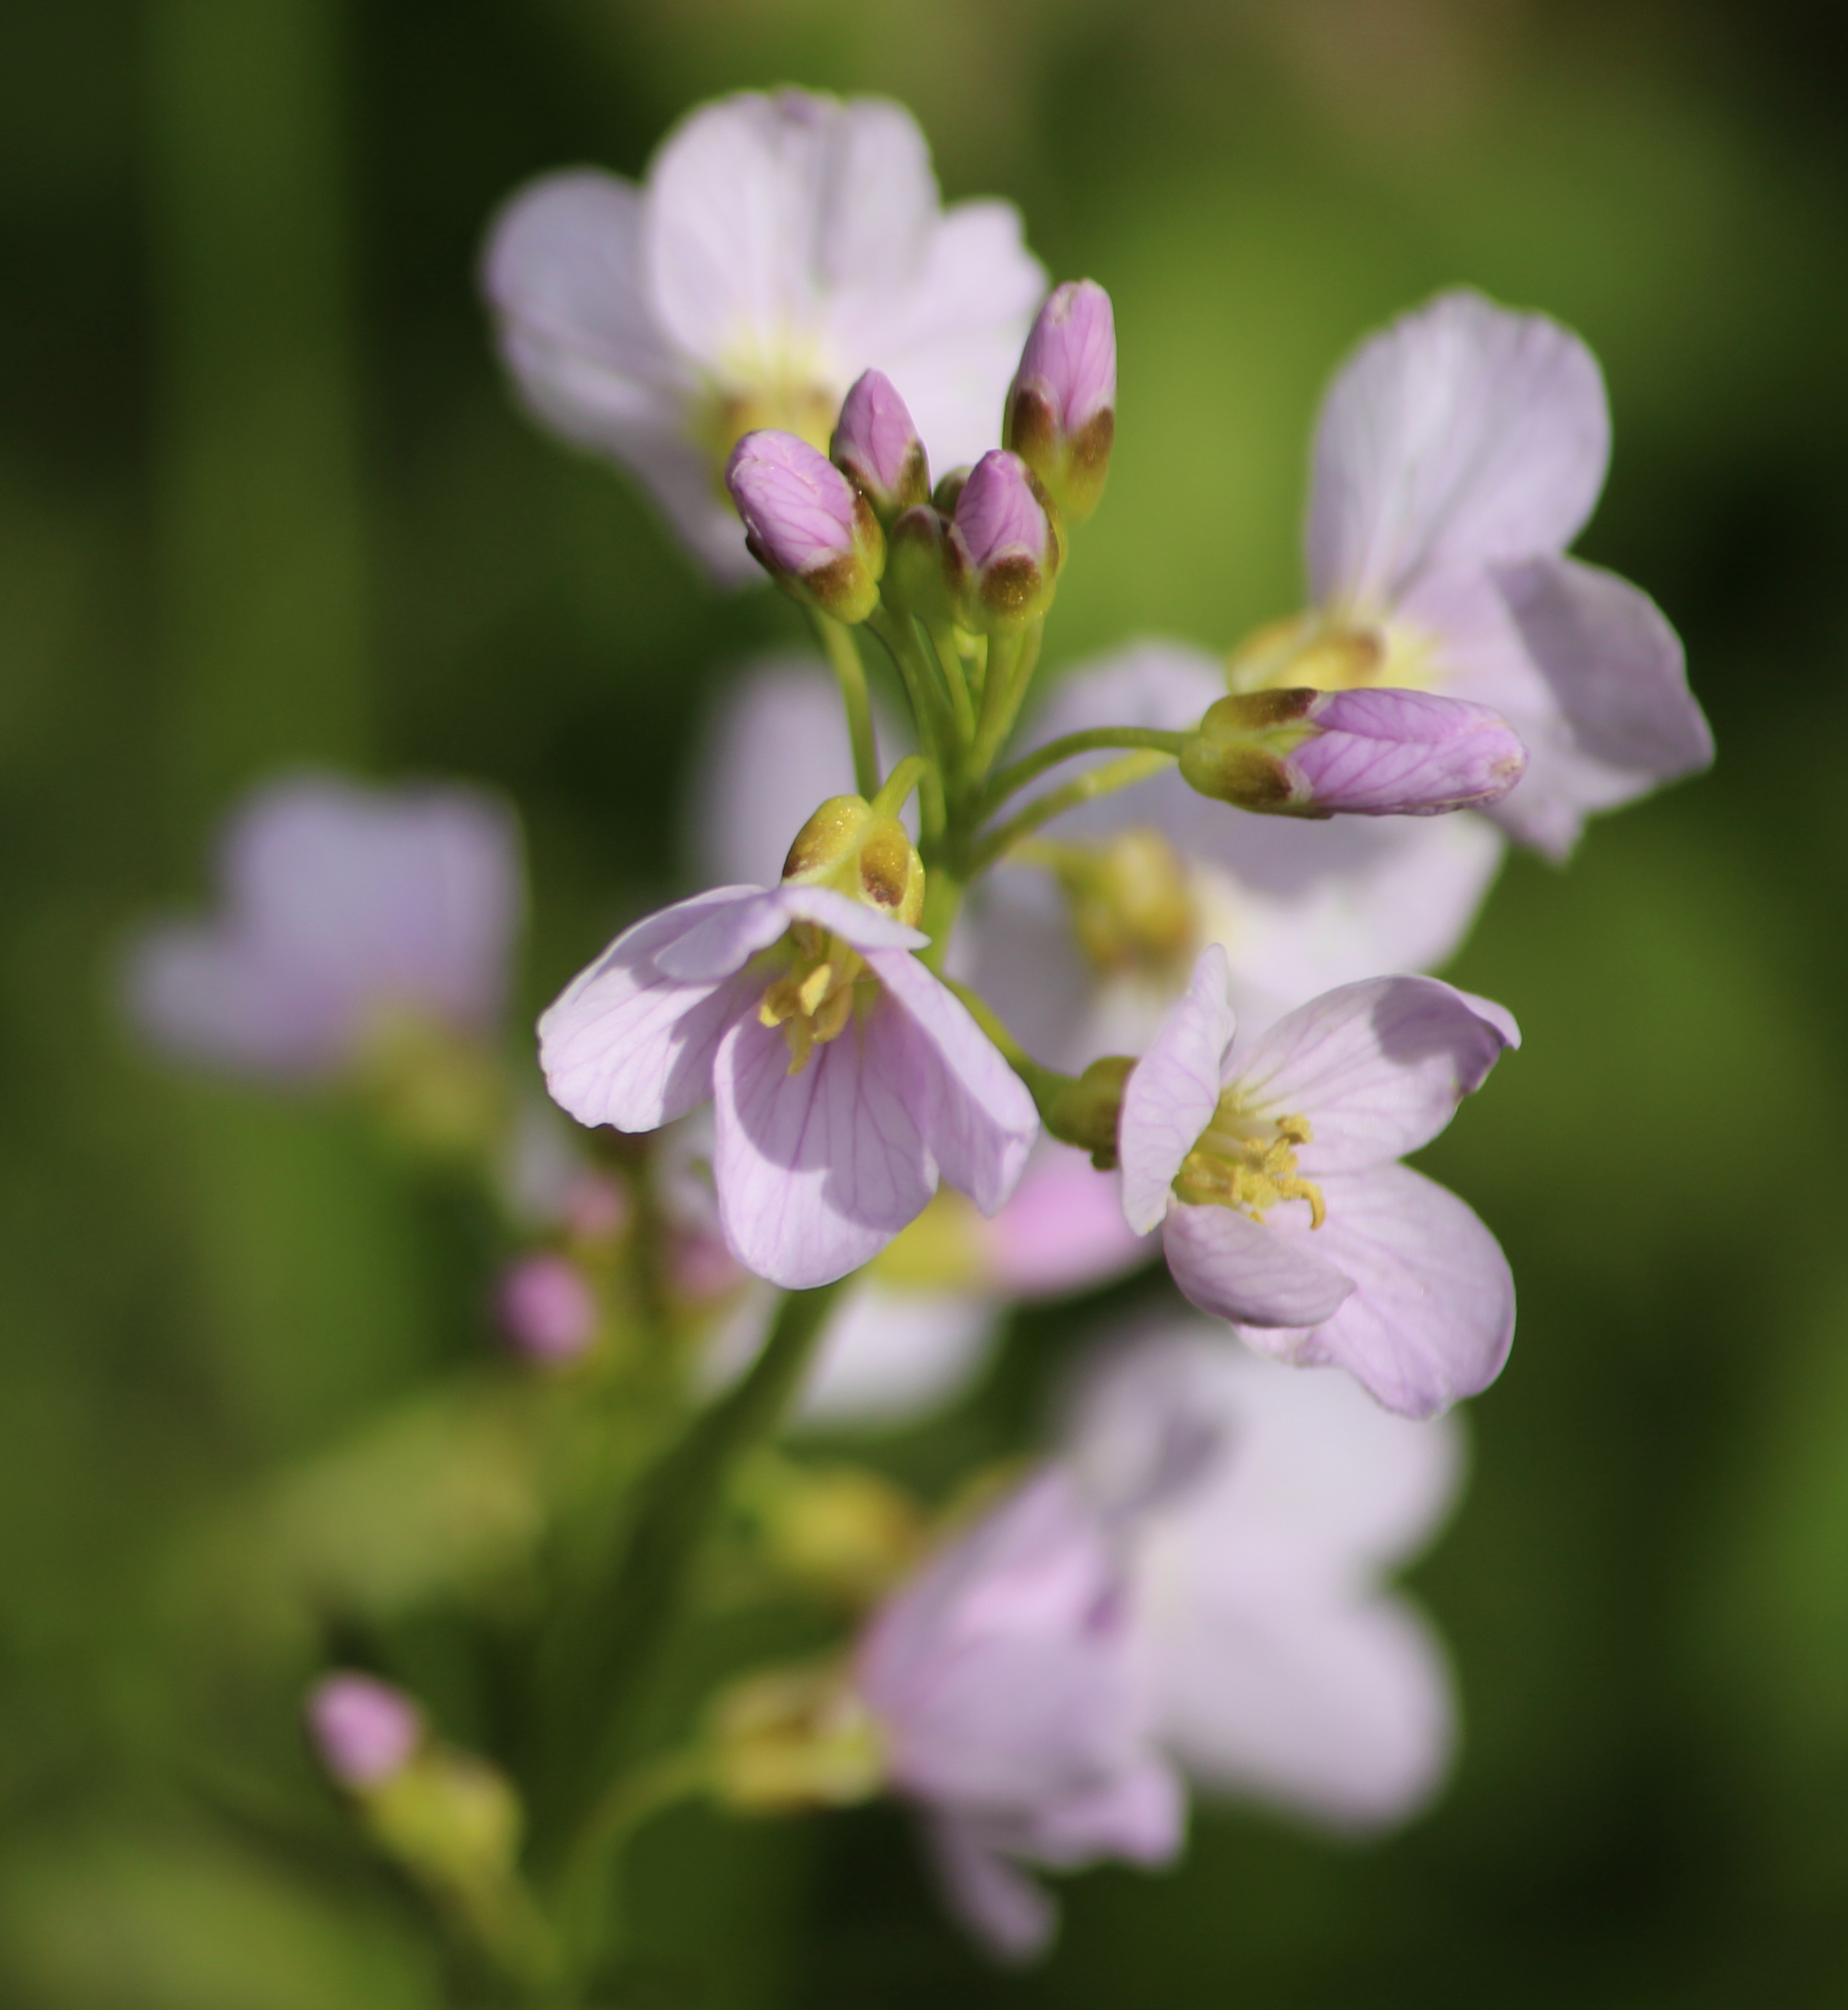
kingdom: Plantae
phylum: Tracheophyta
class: Magnoliopsida
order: Brassicales
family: Brassicaceae
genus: Cardamine
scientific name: Cardamine pratensis
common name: Cuckoo flower
